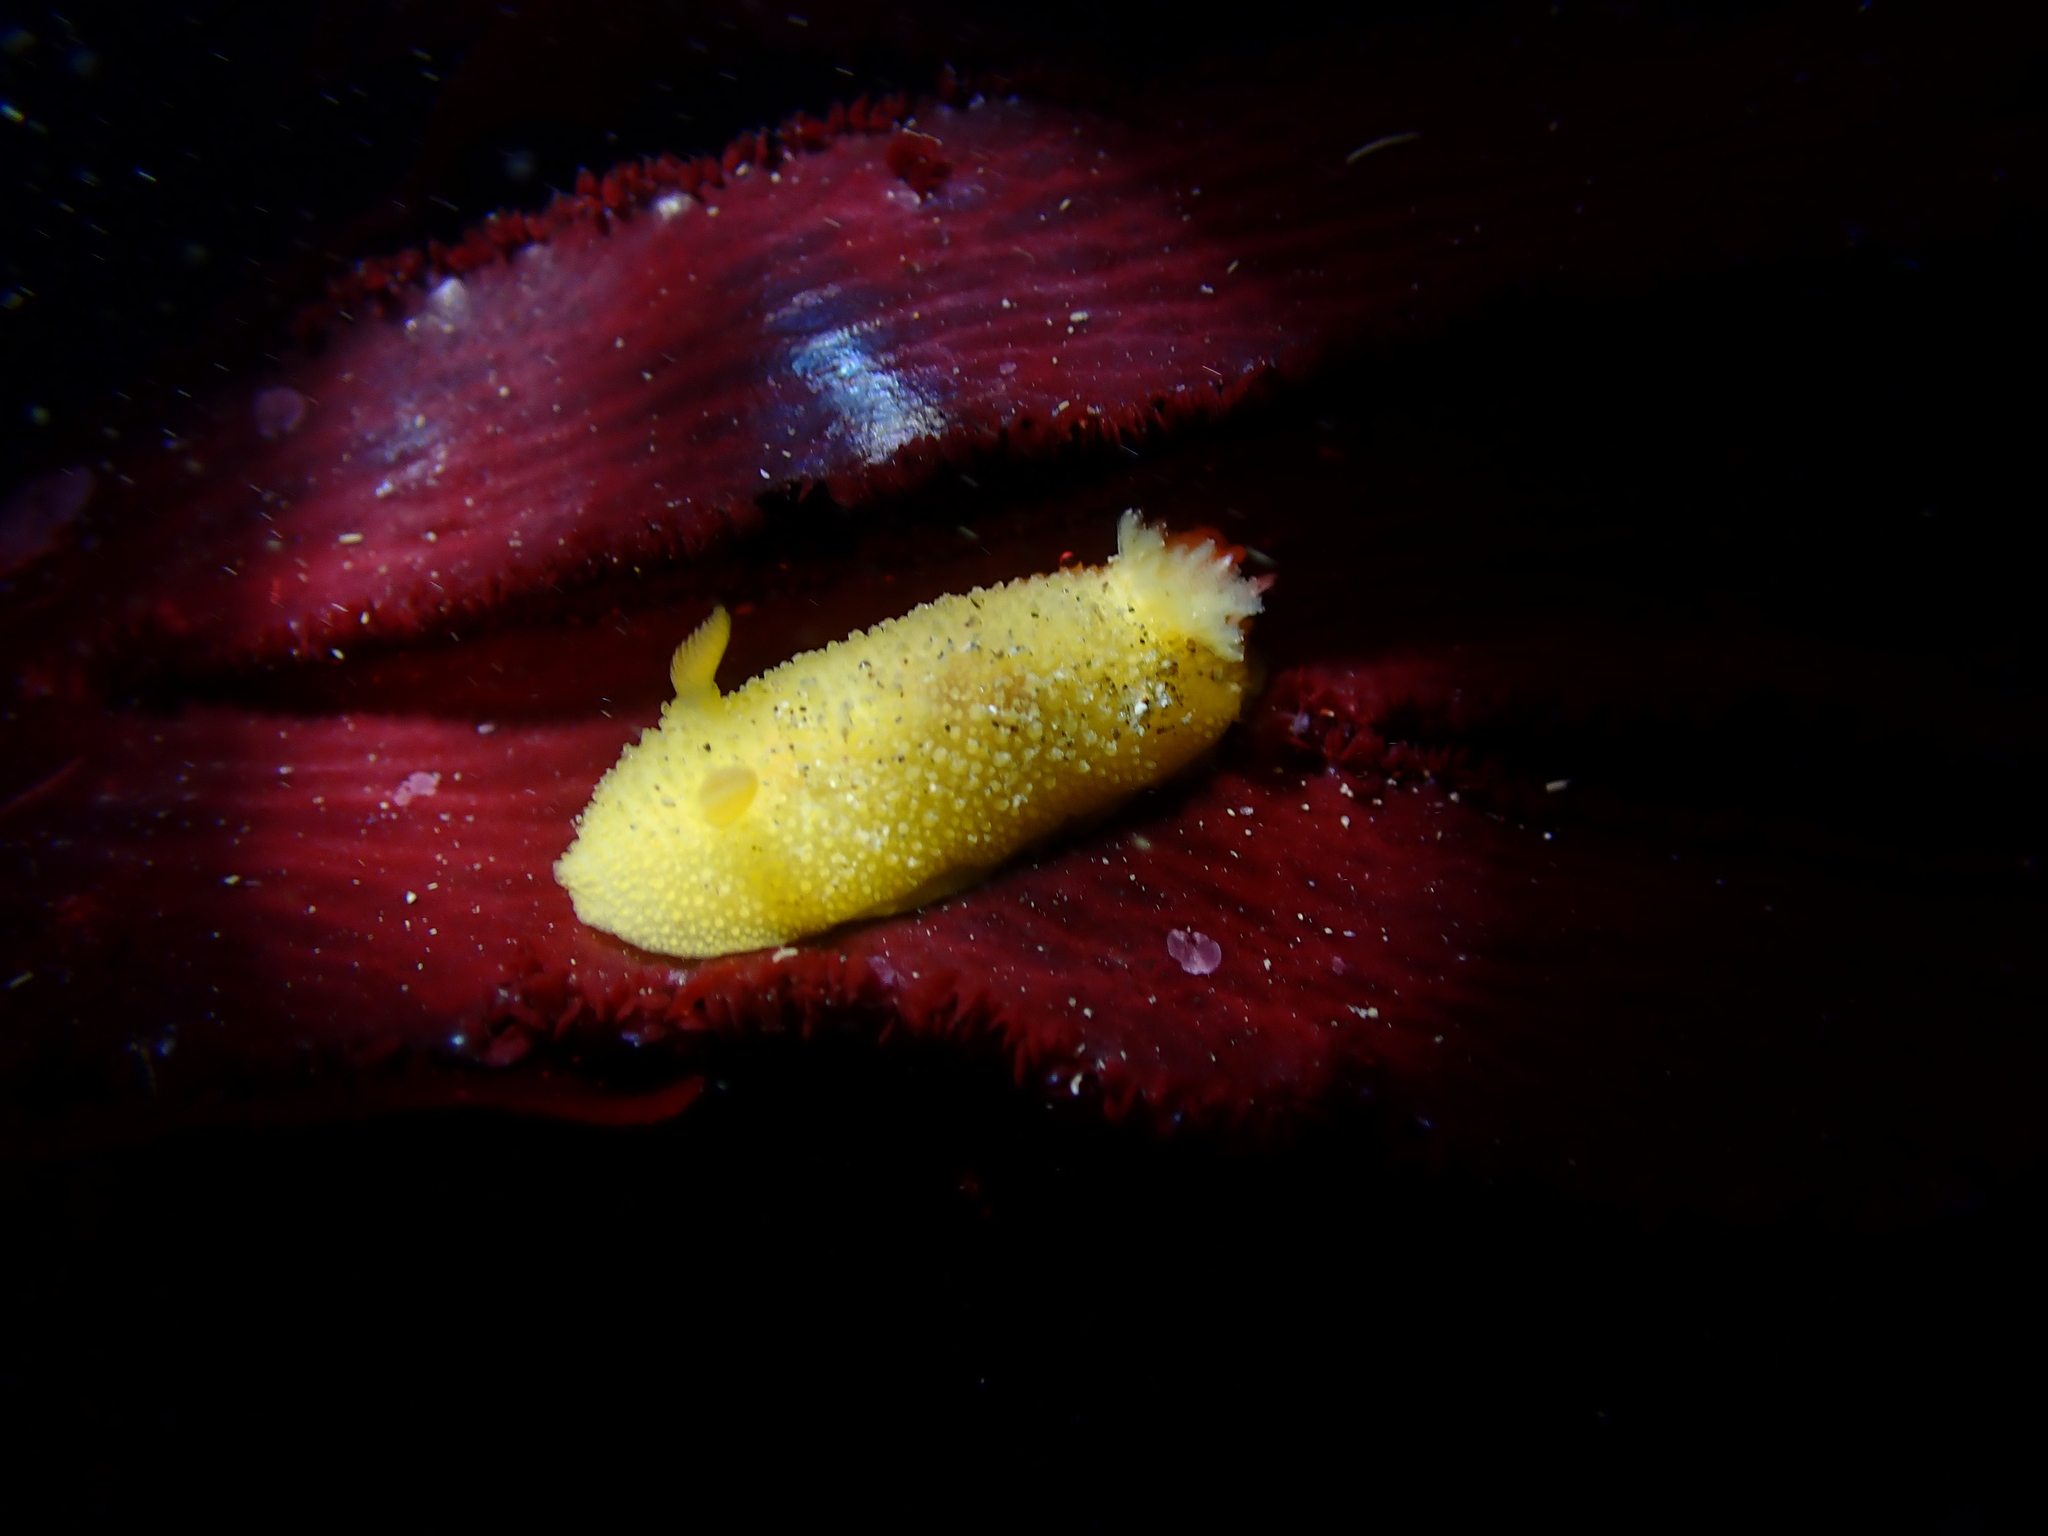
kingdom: Animalia
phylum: Mollusca
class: Gastropoda
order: Nudibranchia
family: Dorididae
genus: Doris
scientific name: Doris montereyensis
